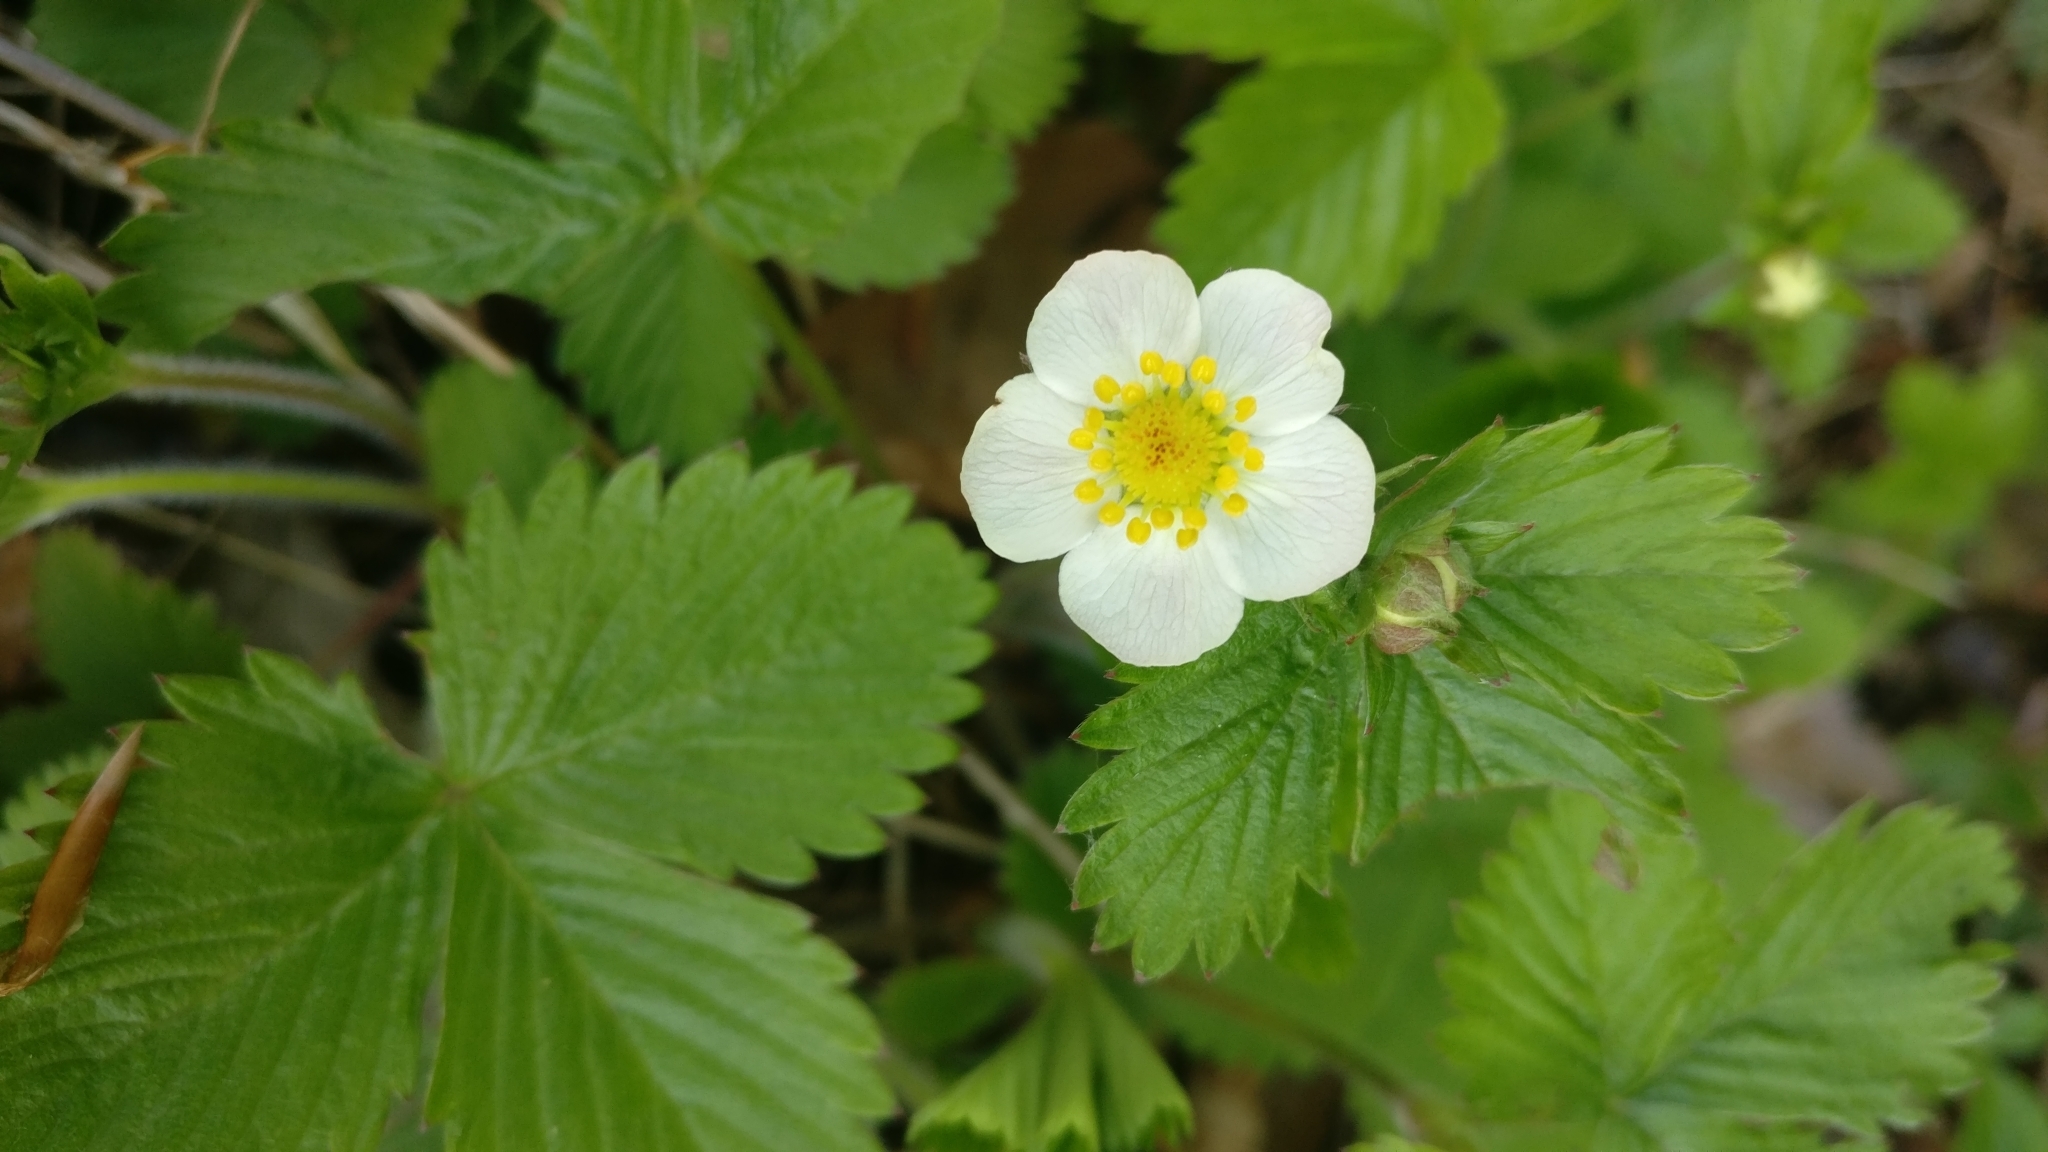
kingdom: Plantae
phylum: Tracheophyta
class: Magnoliopsida
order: Rosales
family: Rosaceae
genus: Fragaria
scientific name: Fragaria vesca
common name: Wild strawberry
